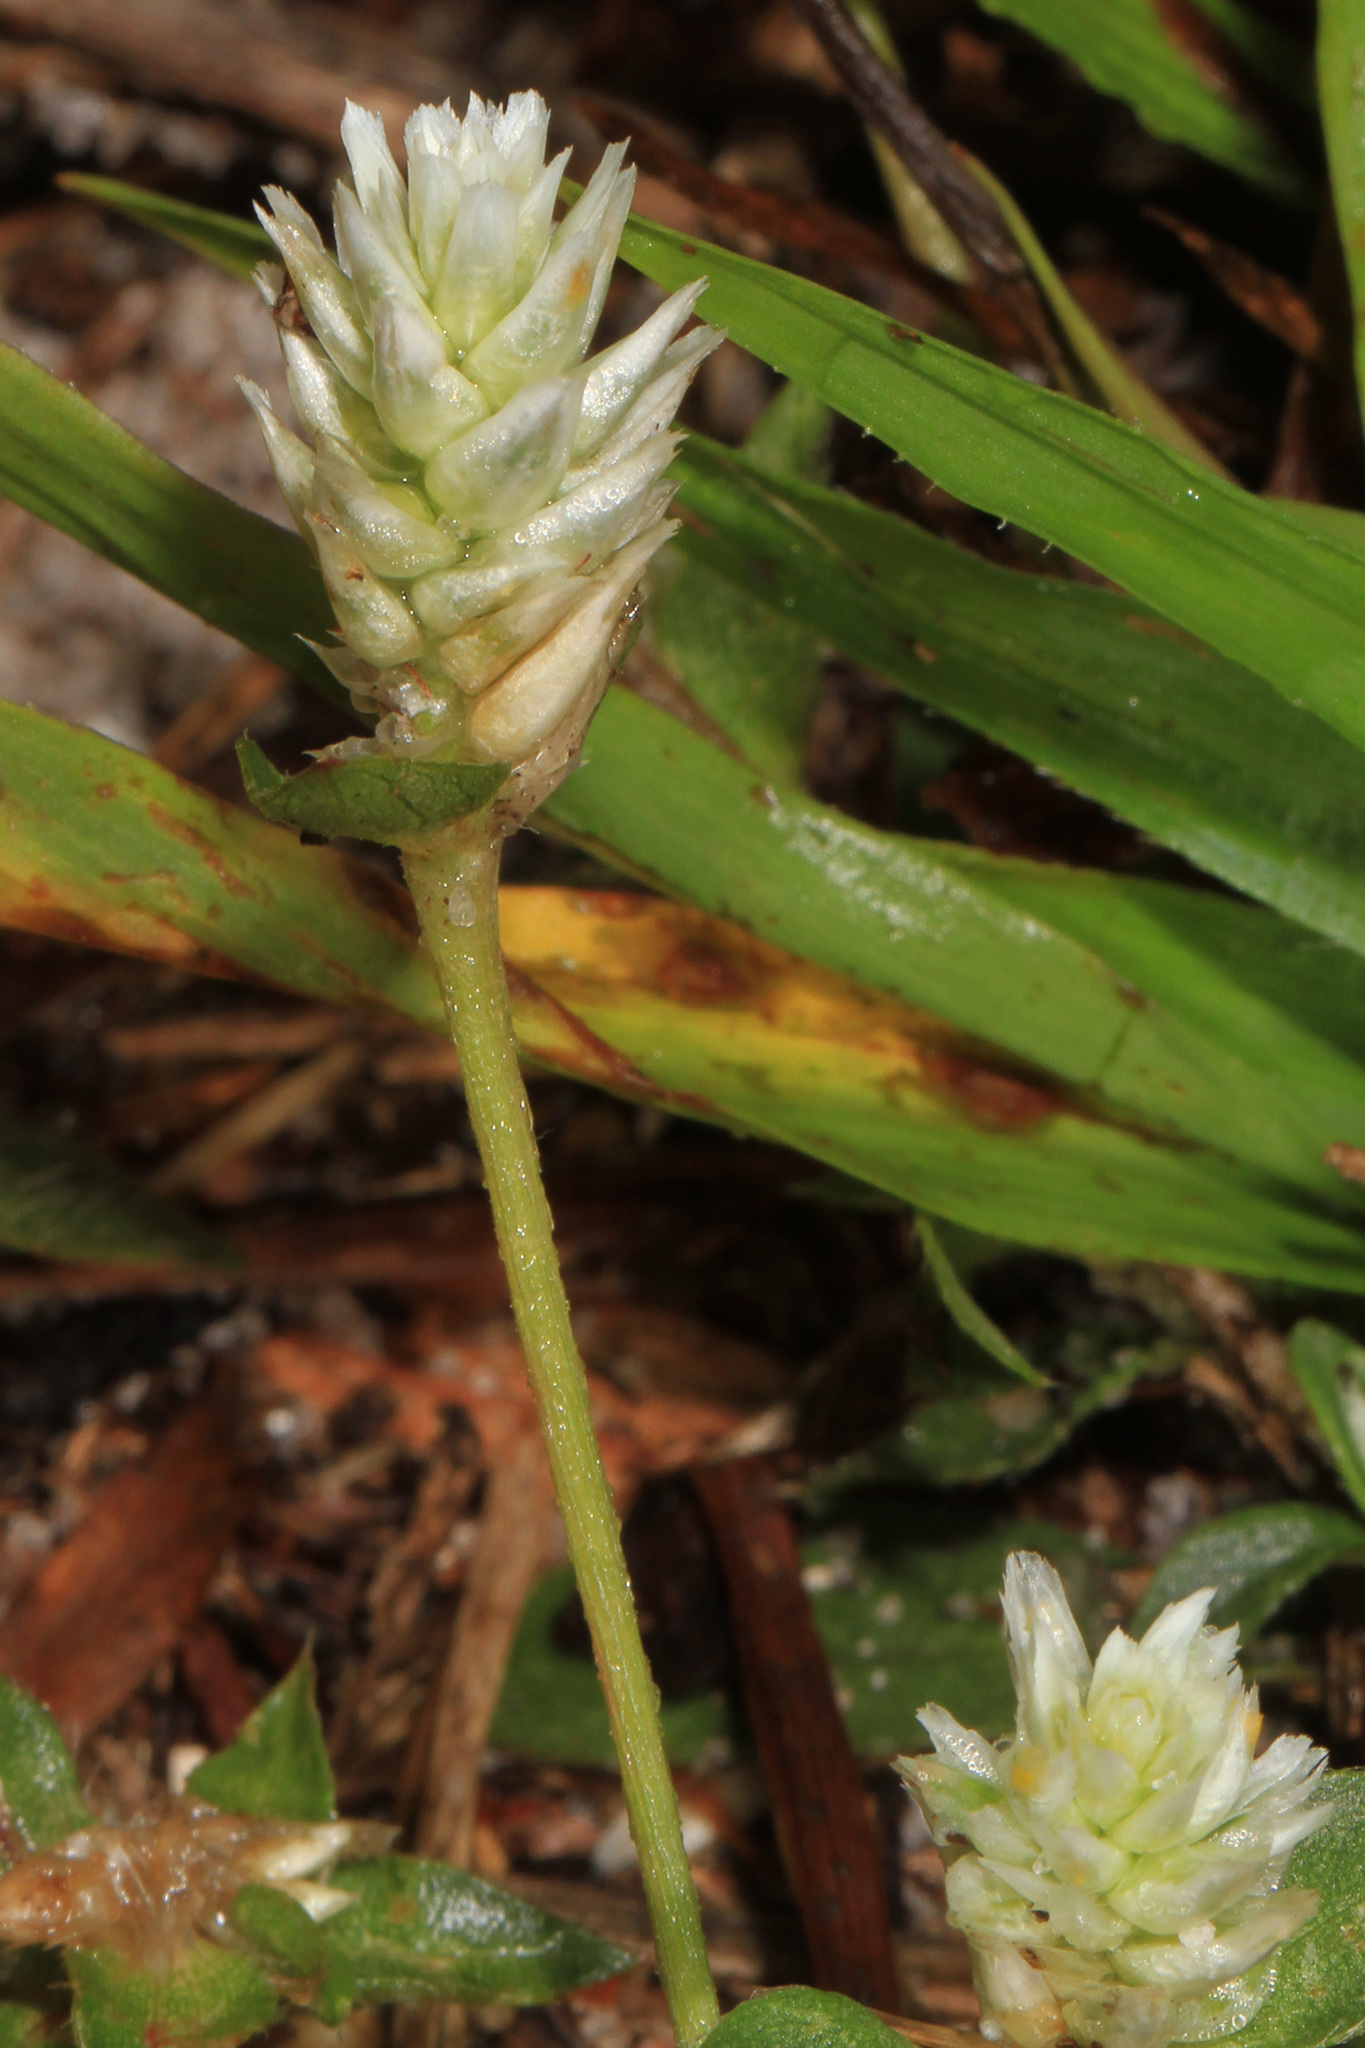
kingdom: Plantae
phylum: Tracheophyta
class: Magnoliopsida
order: Caryophyllales
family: Amaranthaceae
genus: Gomphrena
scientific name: Gomphrena serrata
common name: Arrasa con todo
